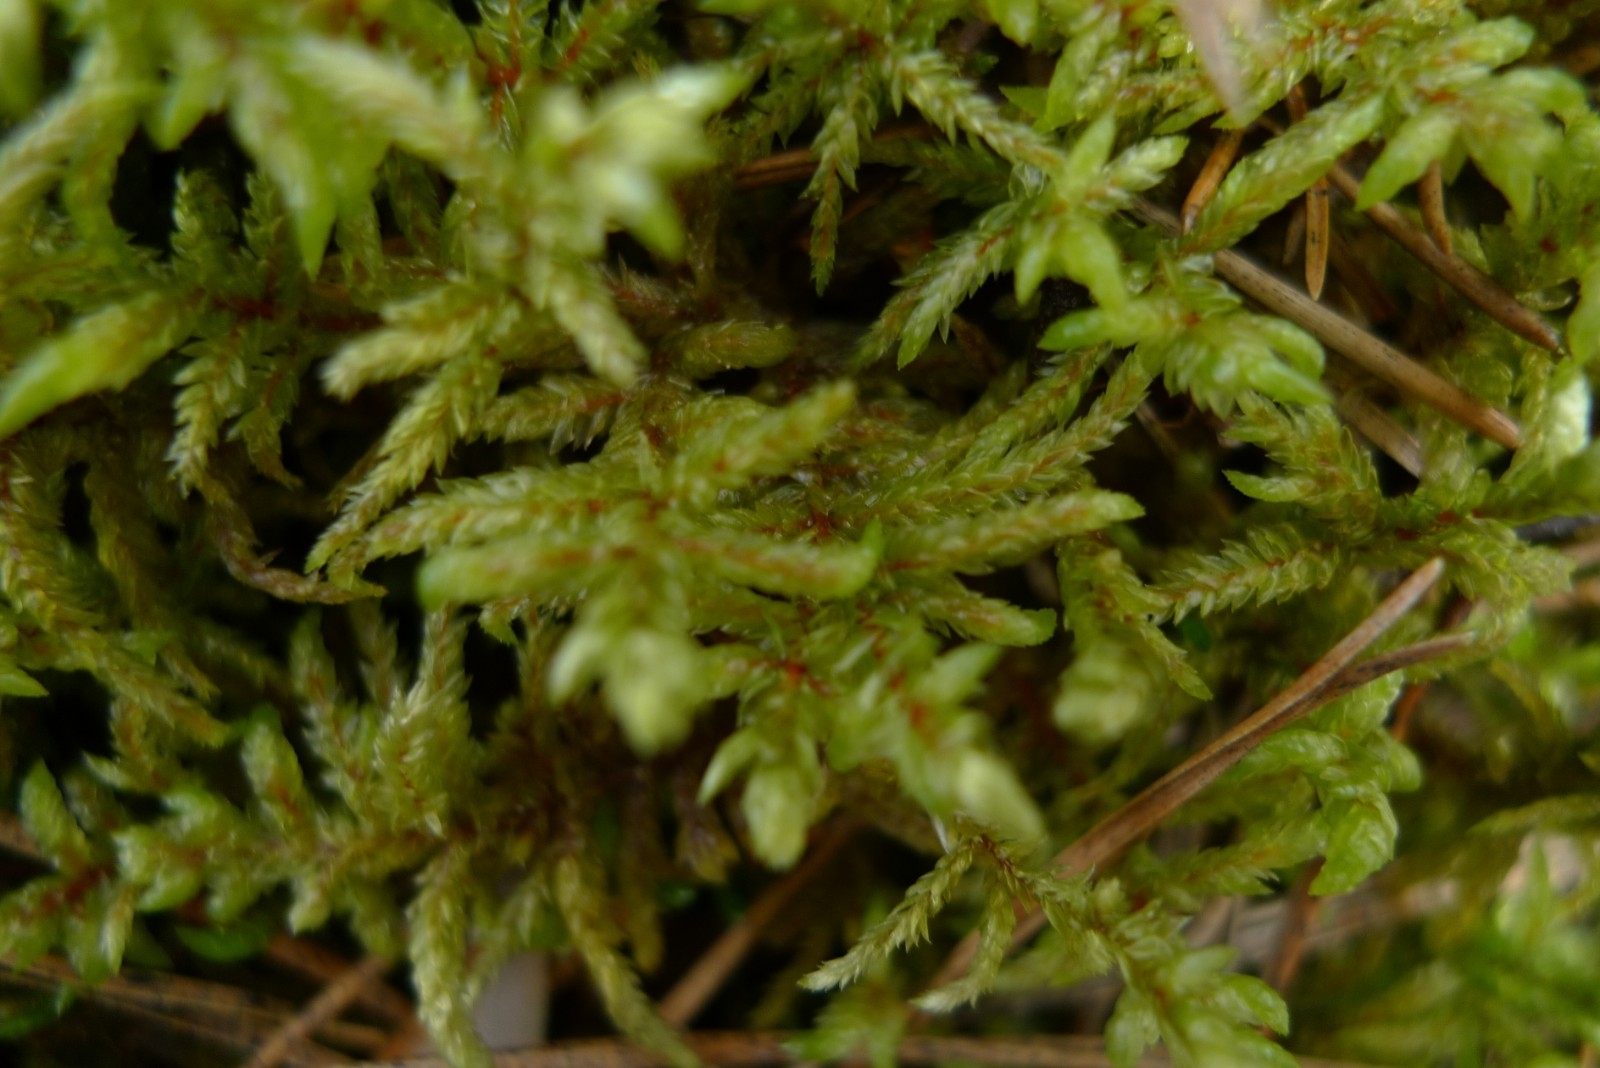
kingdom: Plantae
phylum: Bryophyta
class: Bryopsida
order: Hypnales
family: Hylocomiaceae
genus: Pleurozium
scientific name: Pleurozium schreberi
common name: Red-stemmed feather moss
